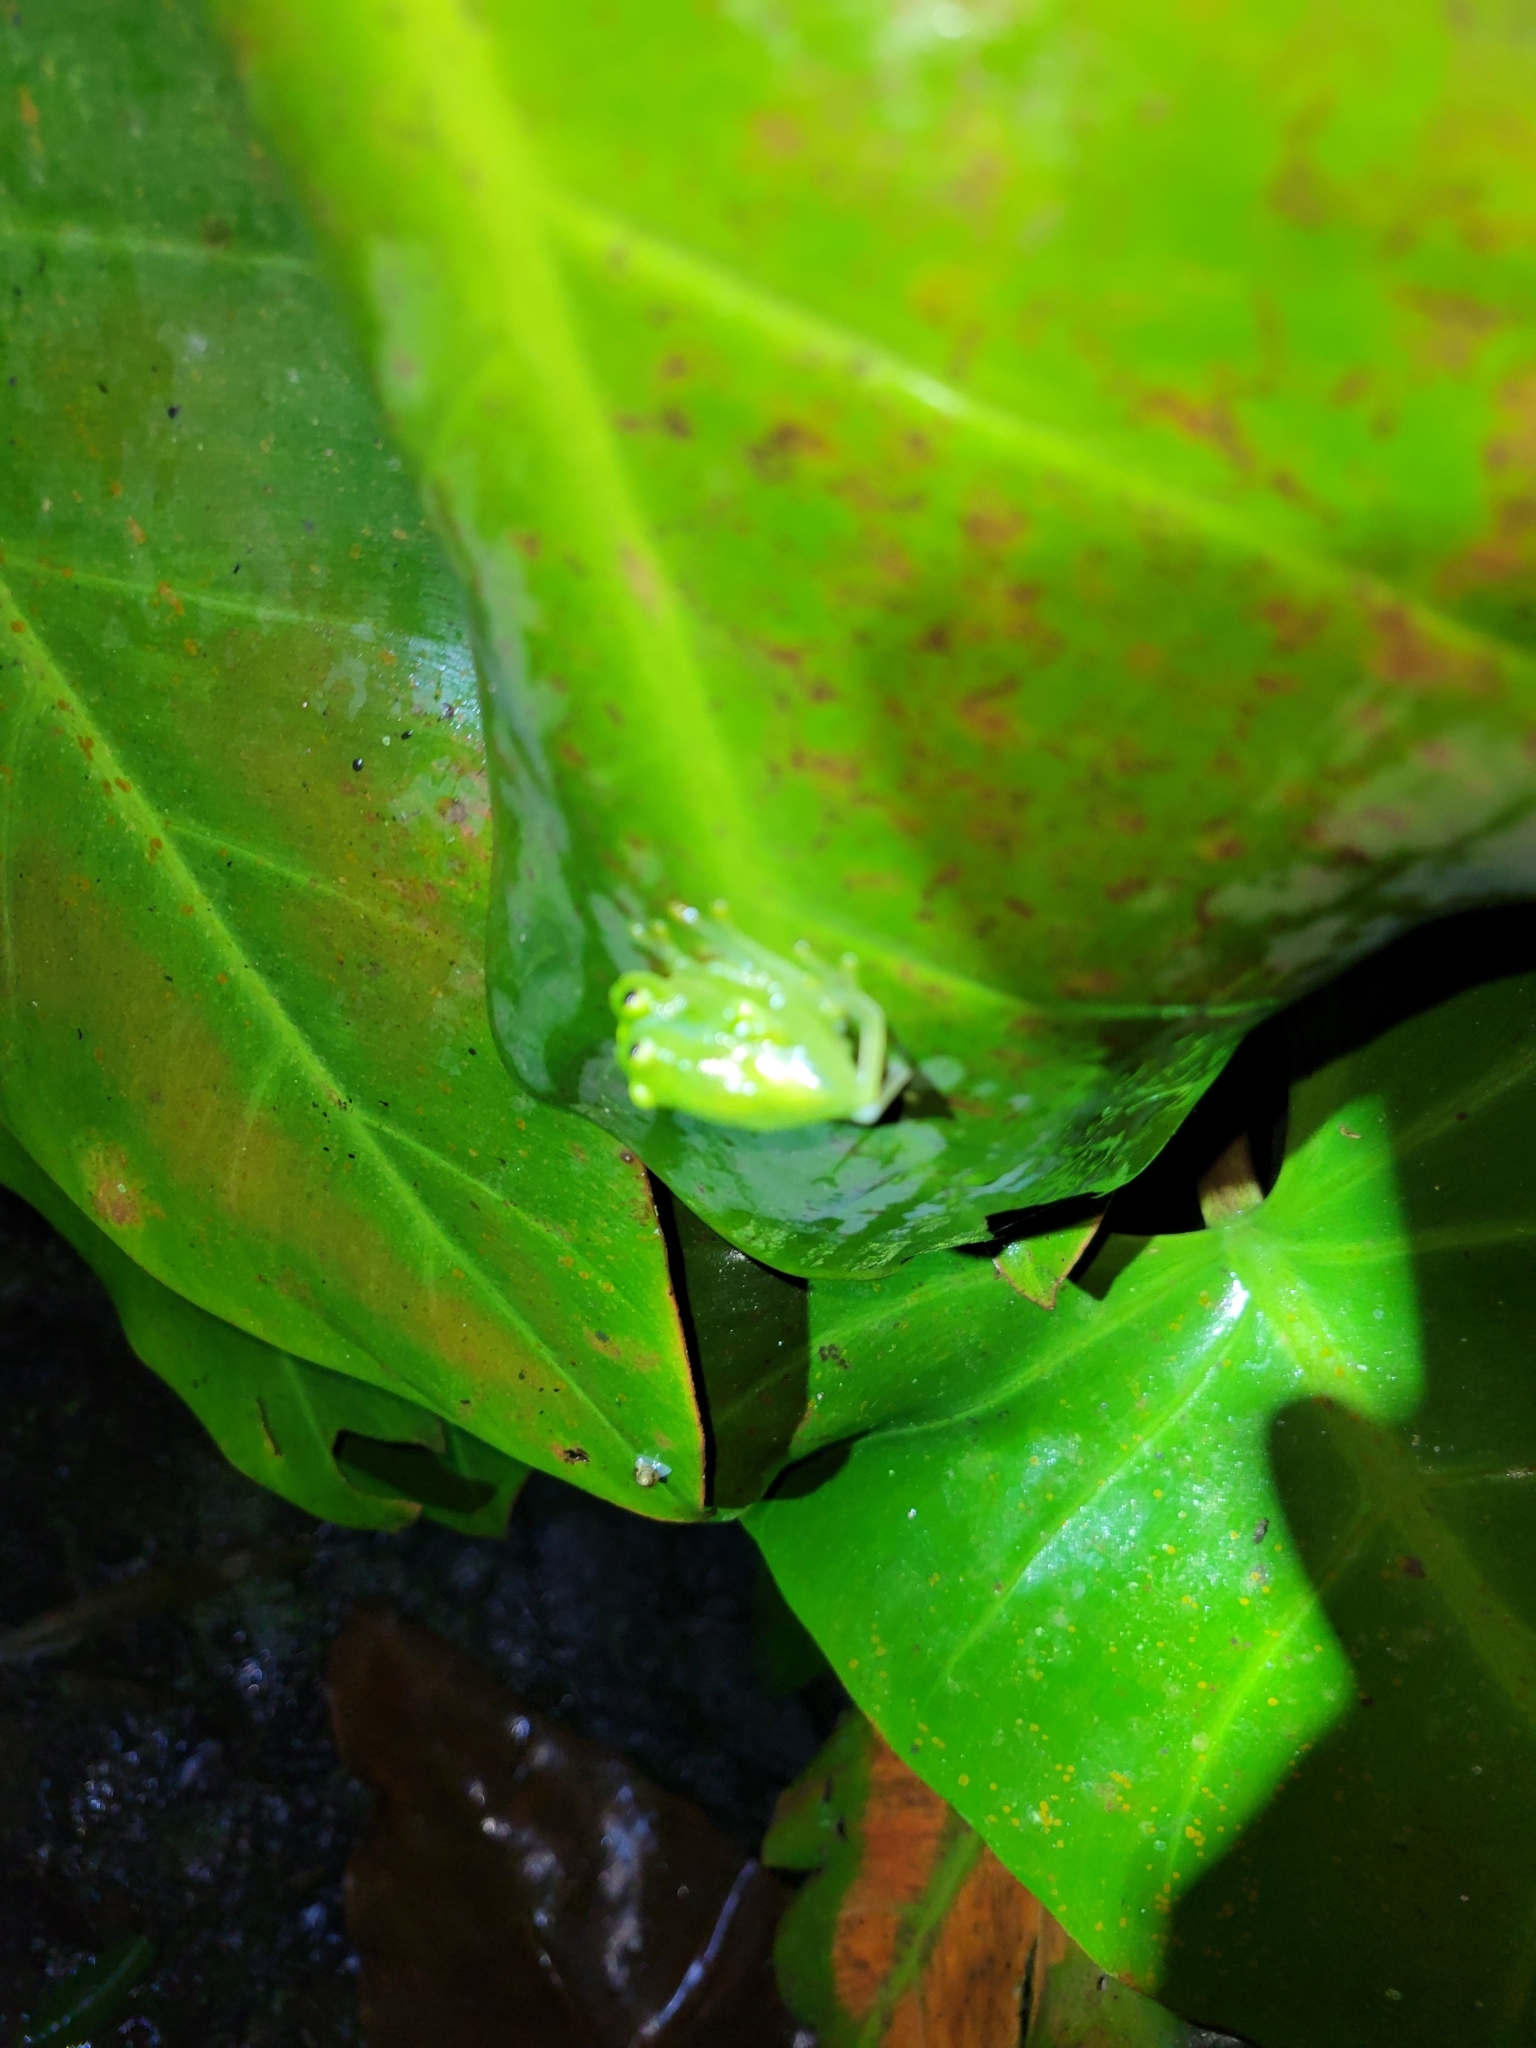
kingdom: Animalia
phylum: Chordata
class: Amphibia
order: Anura
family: Centrolenidae
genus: Hyalinobatrachium
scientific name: Hyalinobatrachium fleischmanni
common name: Rana vientre traslúcido
